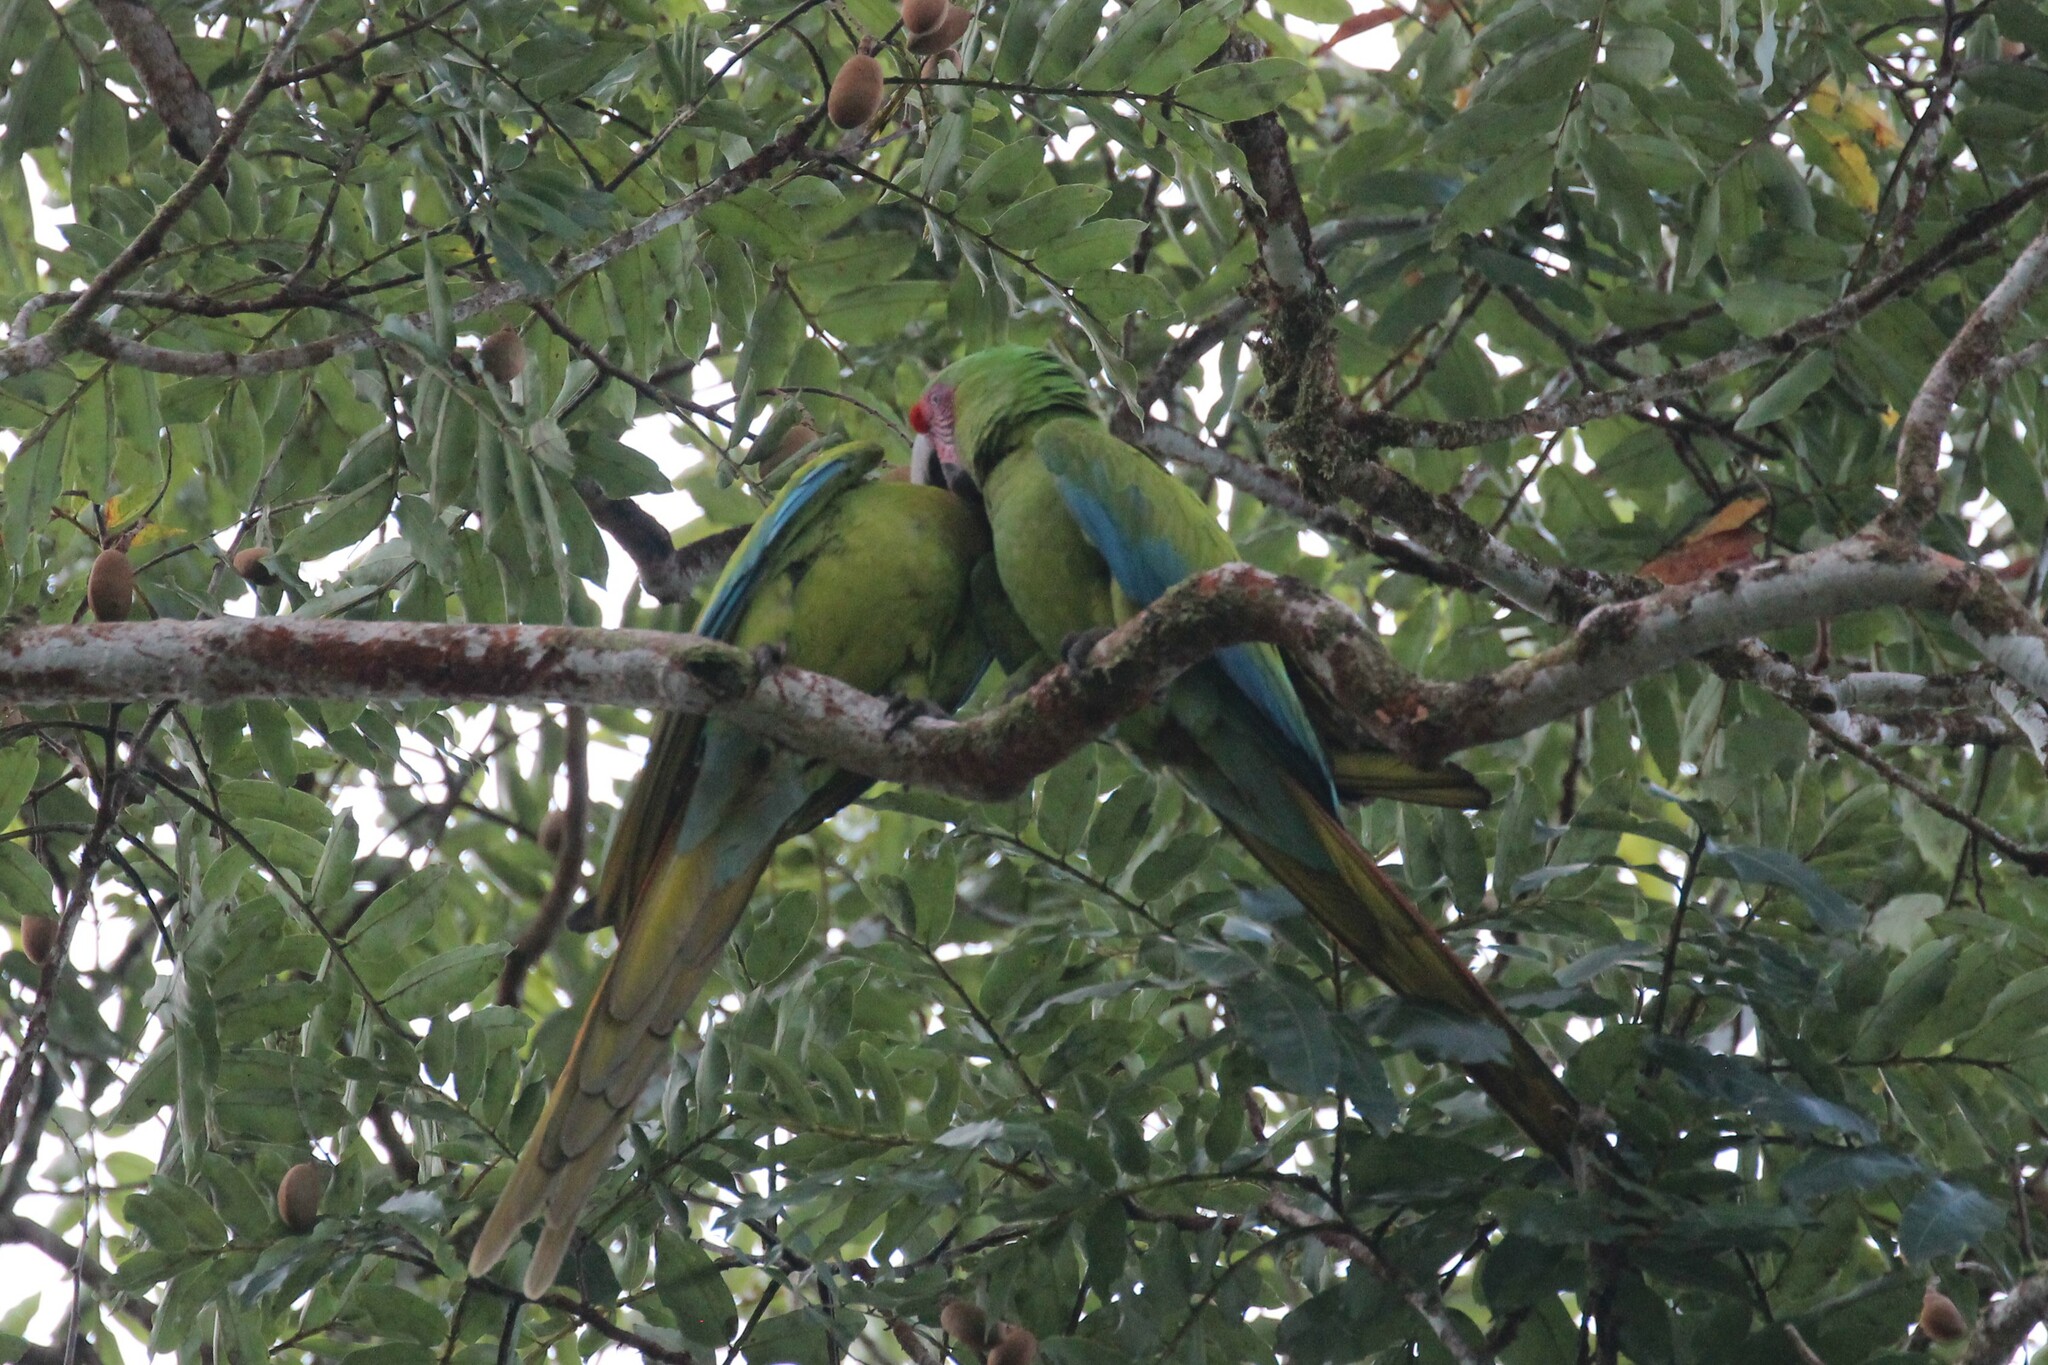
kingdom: Animalia
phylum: Chordata
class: Aves
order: Psittaciformes
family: Psittacidae
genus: Ara
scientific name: Ara ambiguus
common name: Great green macaw
